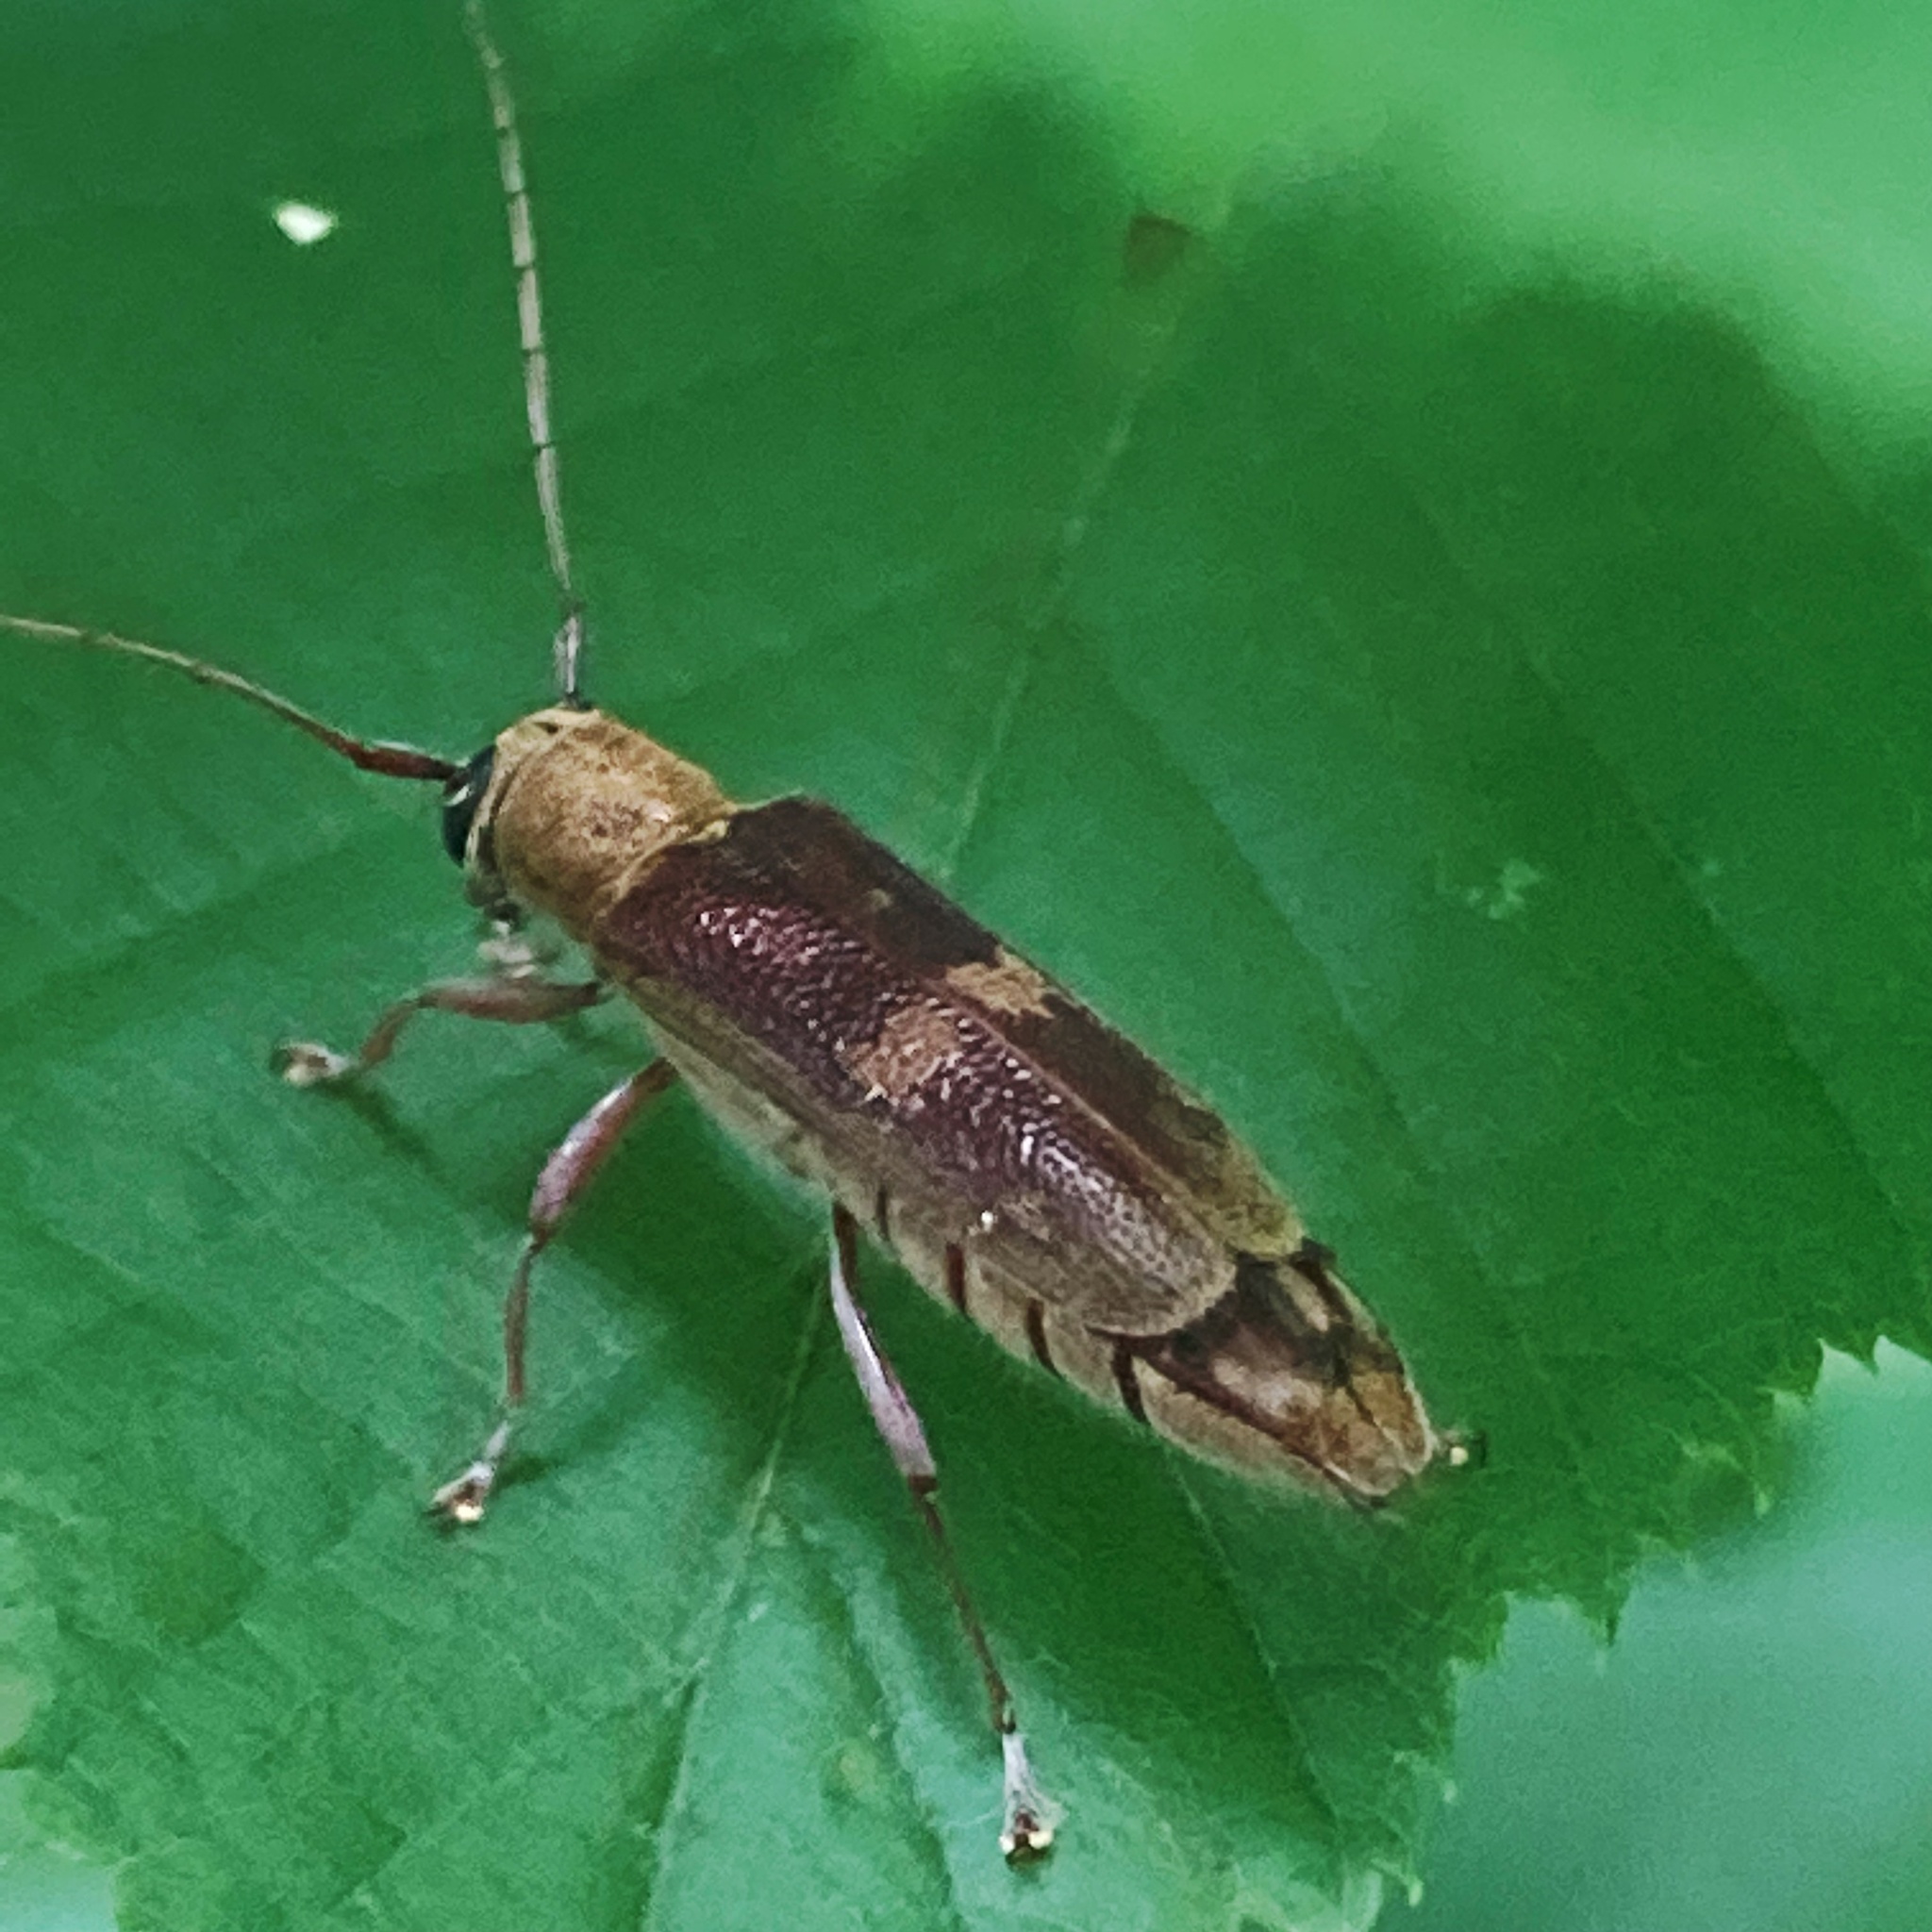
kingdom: Animalia
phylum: Arthropoda
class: Insecta
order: Coleoptera
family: Cerambycidae
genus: Saperda
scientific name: Saperda discoidea
